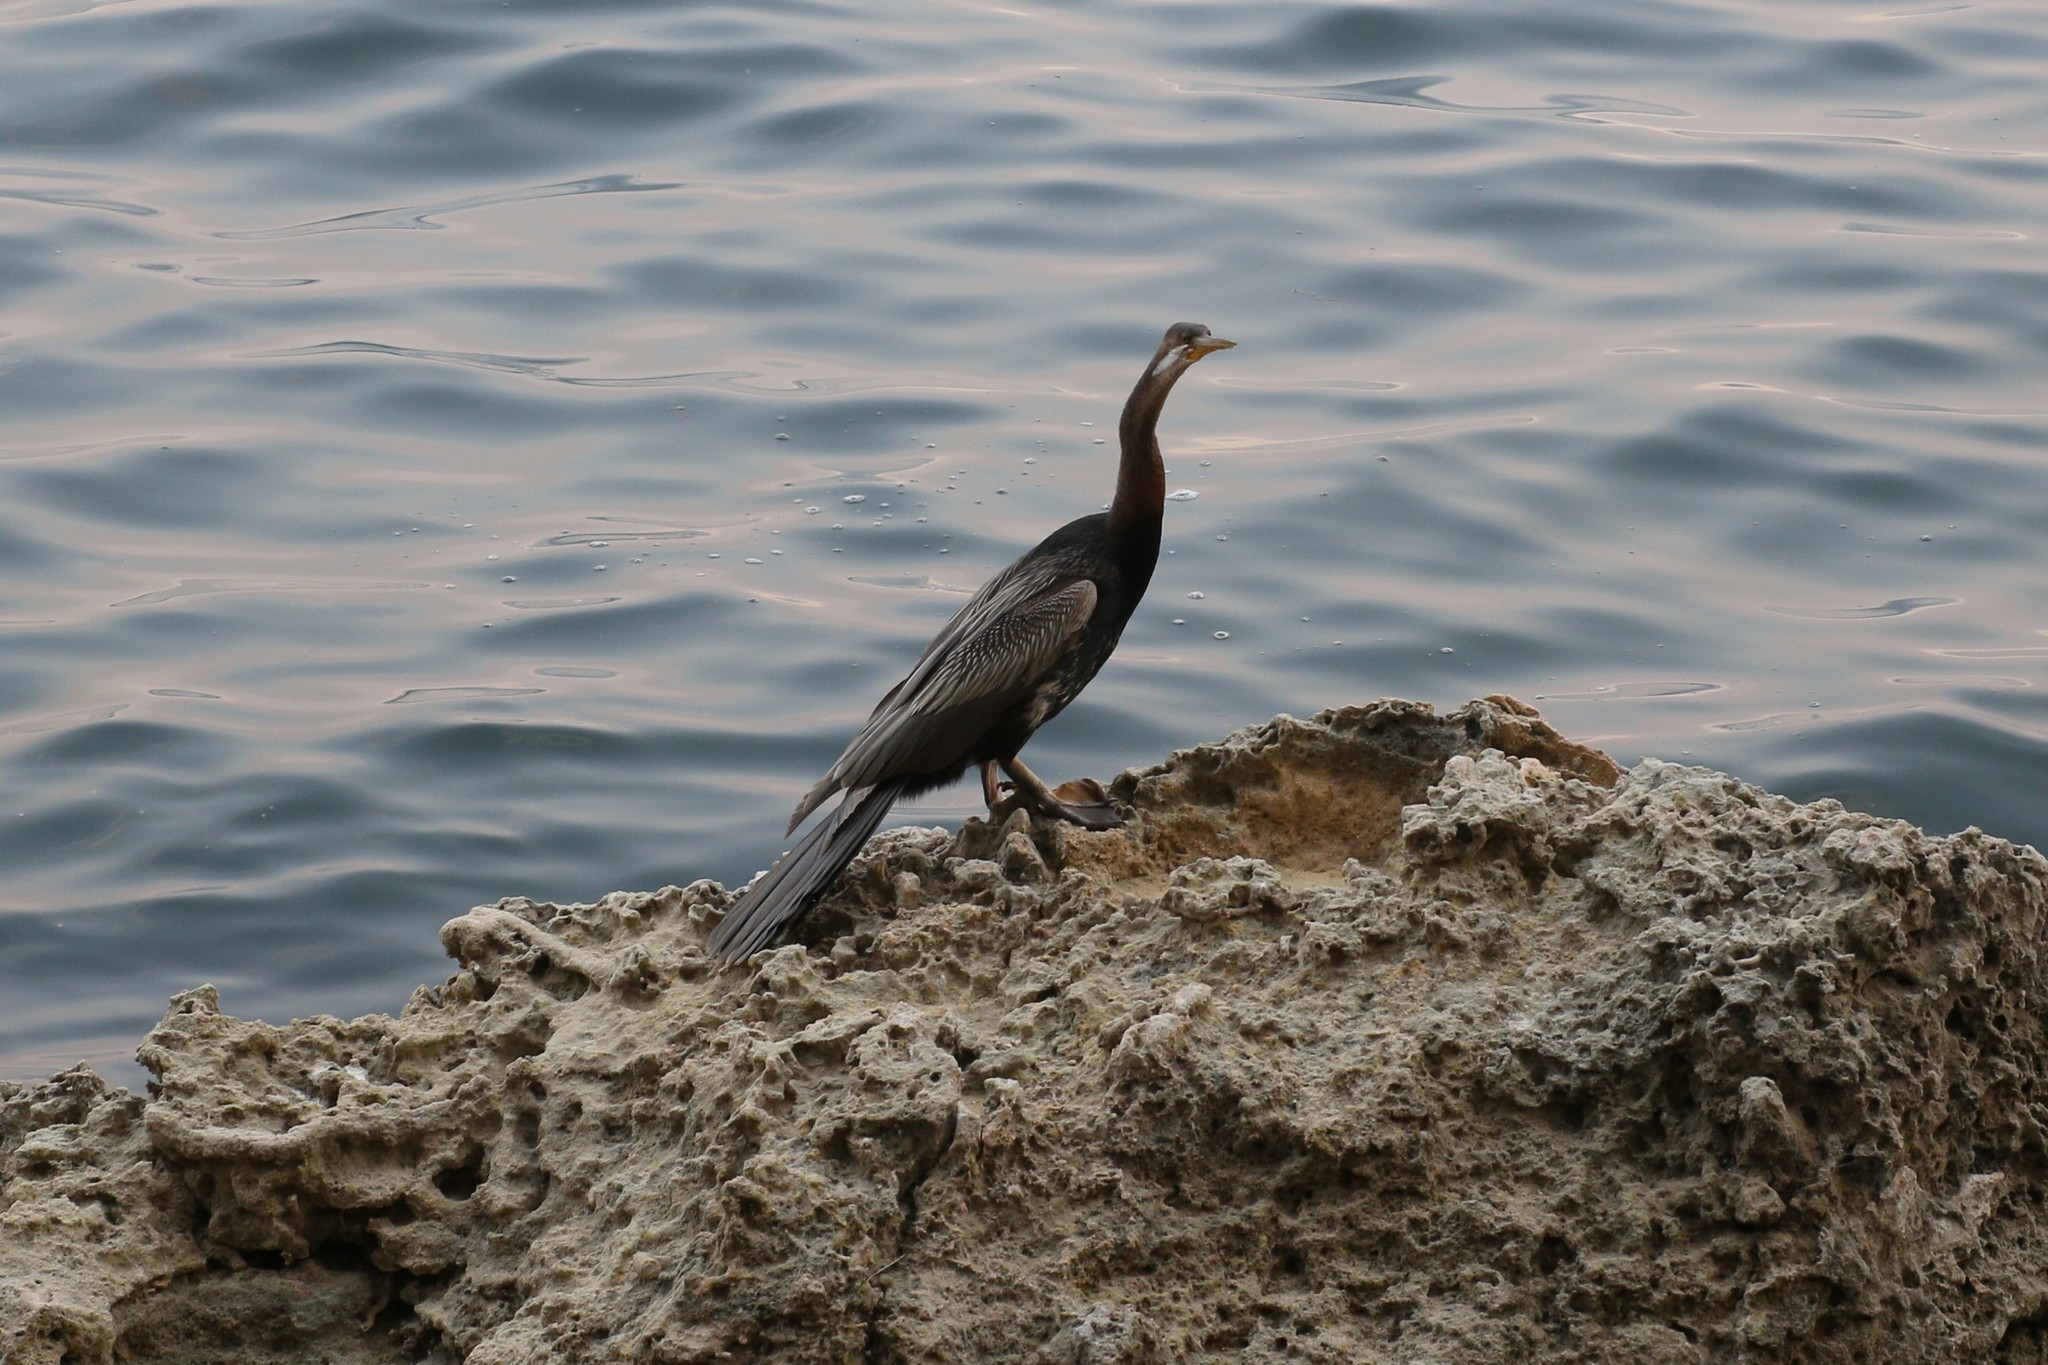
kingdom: Animalia
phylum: Chordata
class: Aves
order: Suliformes
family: Anhingidae
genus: Anhinga
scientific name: Anhinga novaehollandiae
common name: Australasian darter
